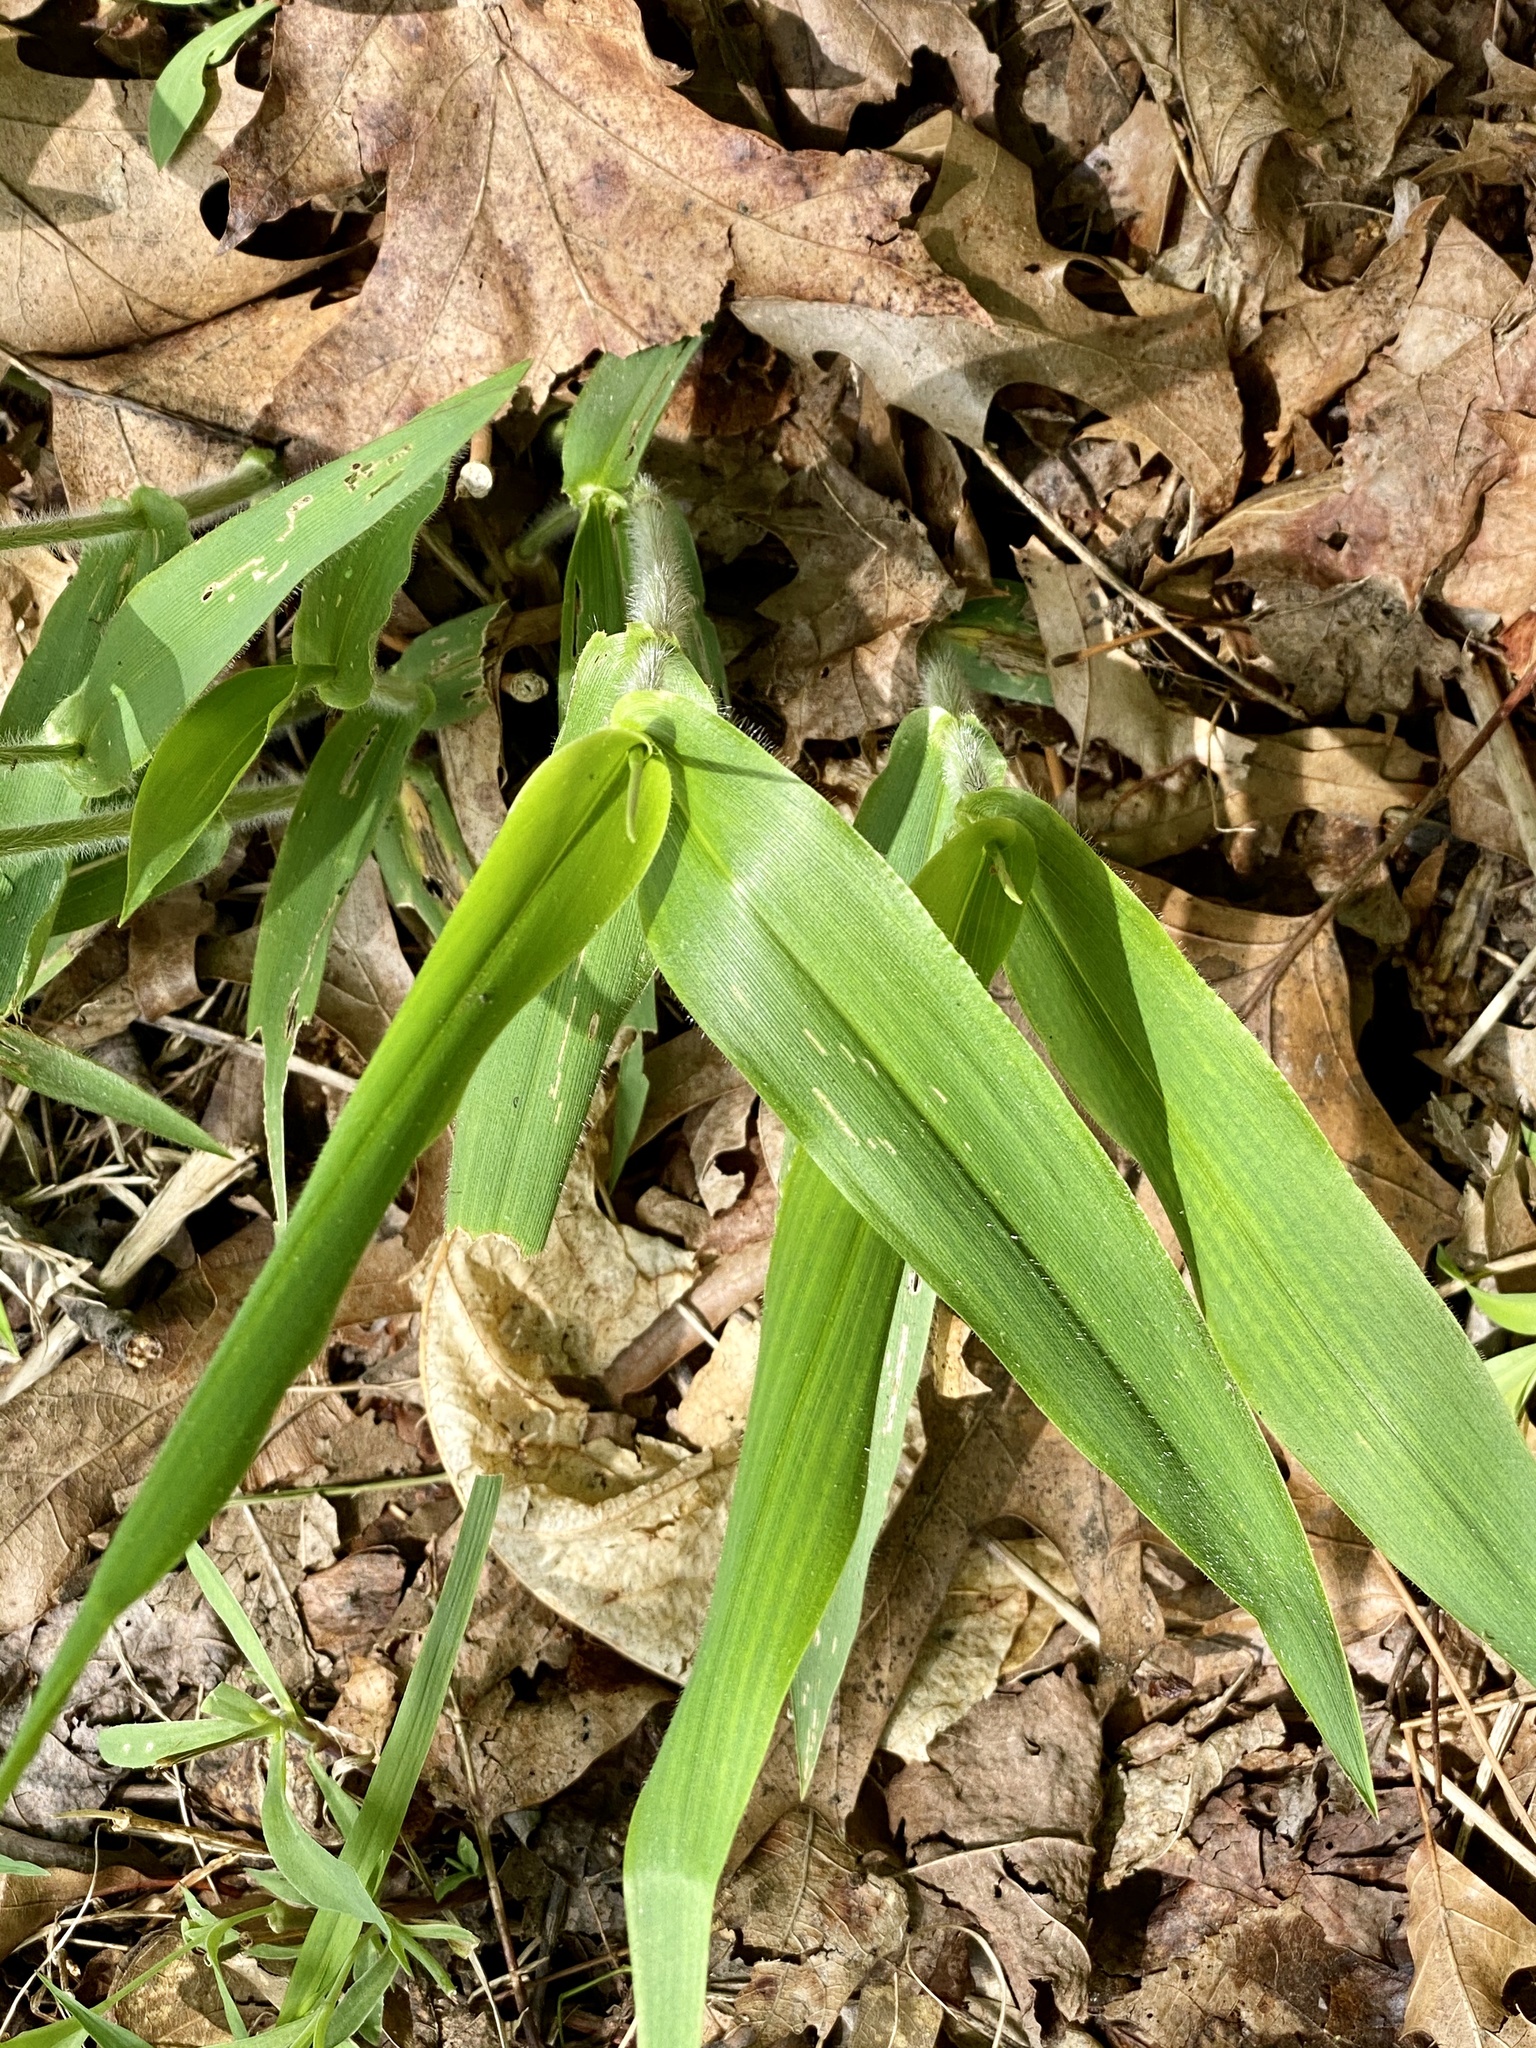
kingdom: Plantae
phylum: Tracheophyta
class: Liliopsida
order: Poales
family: Poaceae
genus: Dichanthelium
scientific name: Dichanthelium clandestinum
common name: Deer-tongue grass
